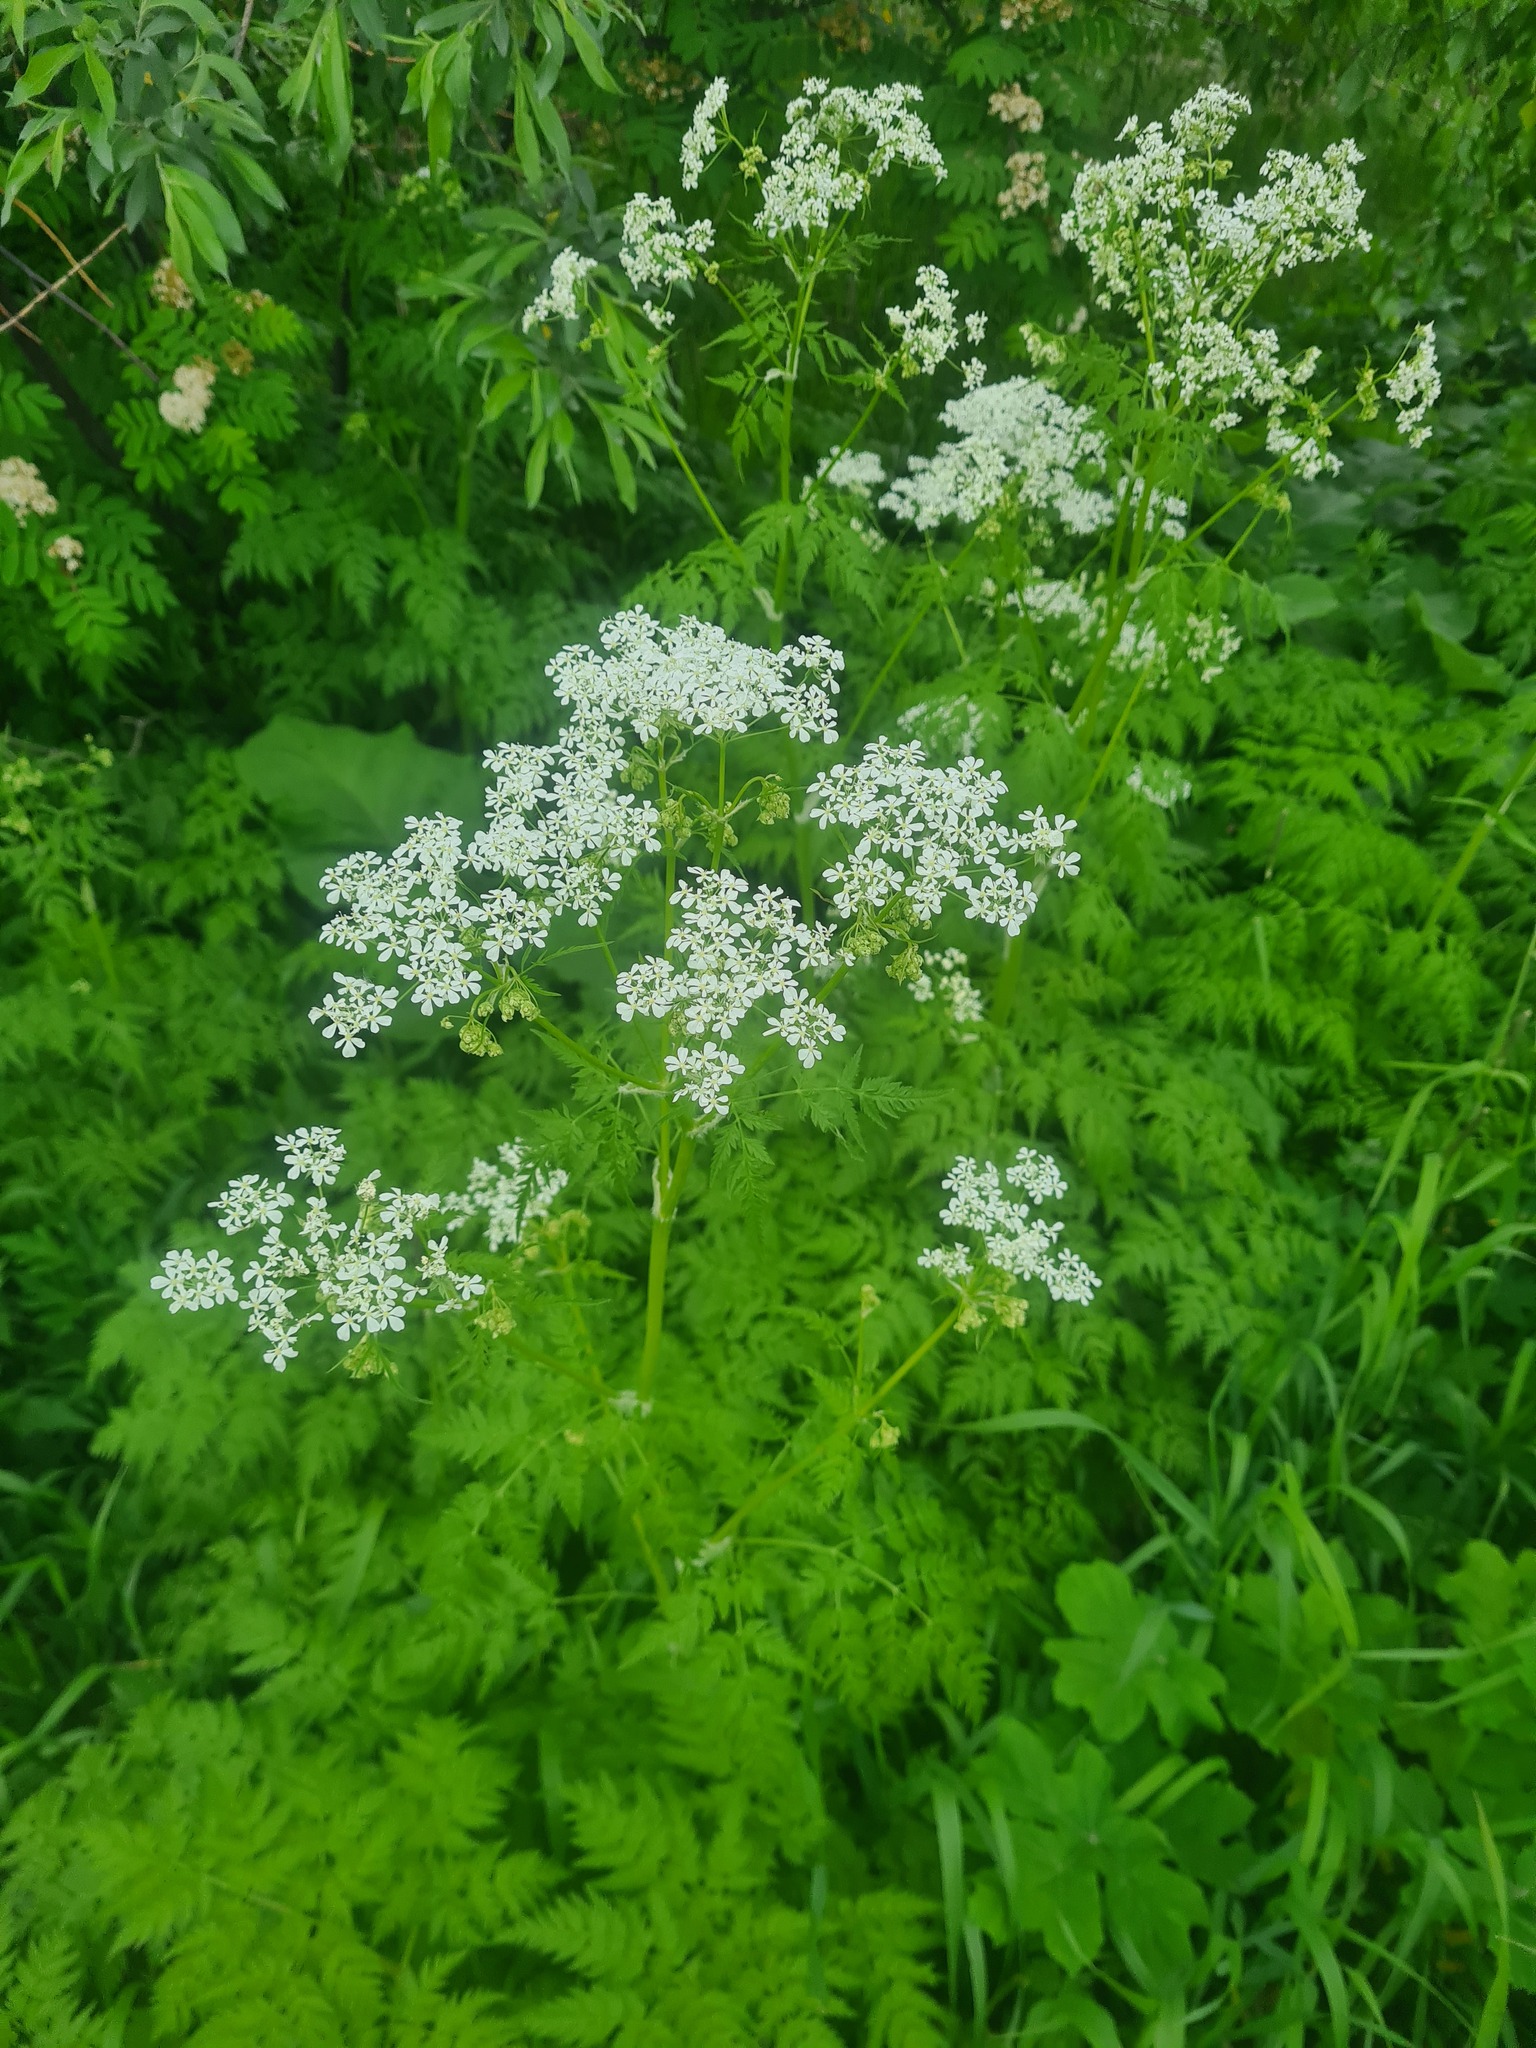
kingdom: Plantae
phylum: Tracheophyta
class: Magnoliopsida
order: Apiales
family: Apiaceae
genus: Anthriscus
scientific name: Anthriscus sylvestris
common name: Cow parsley
